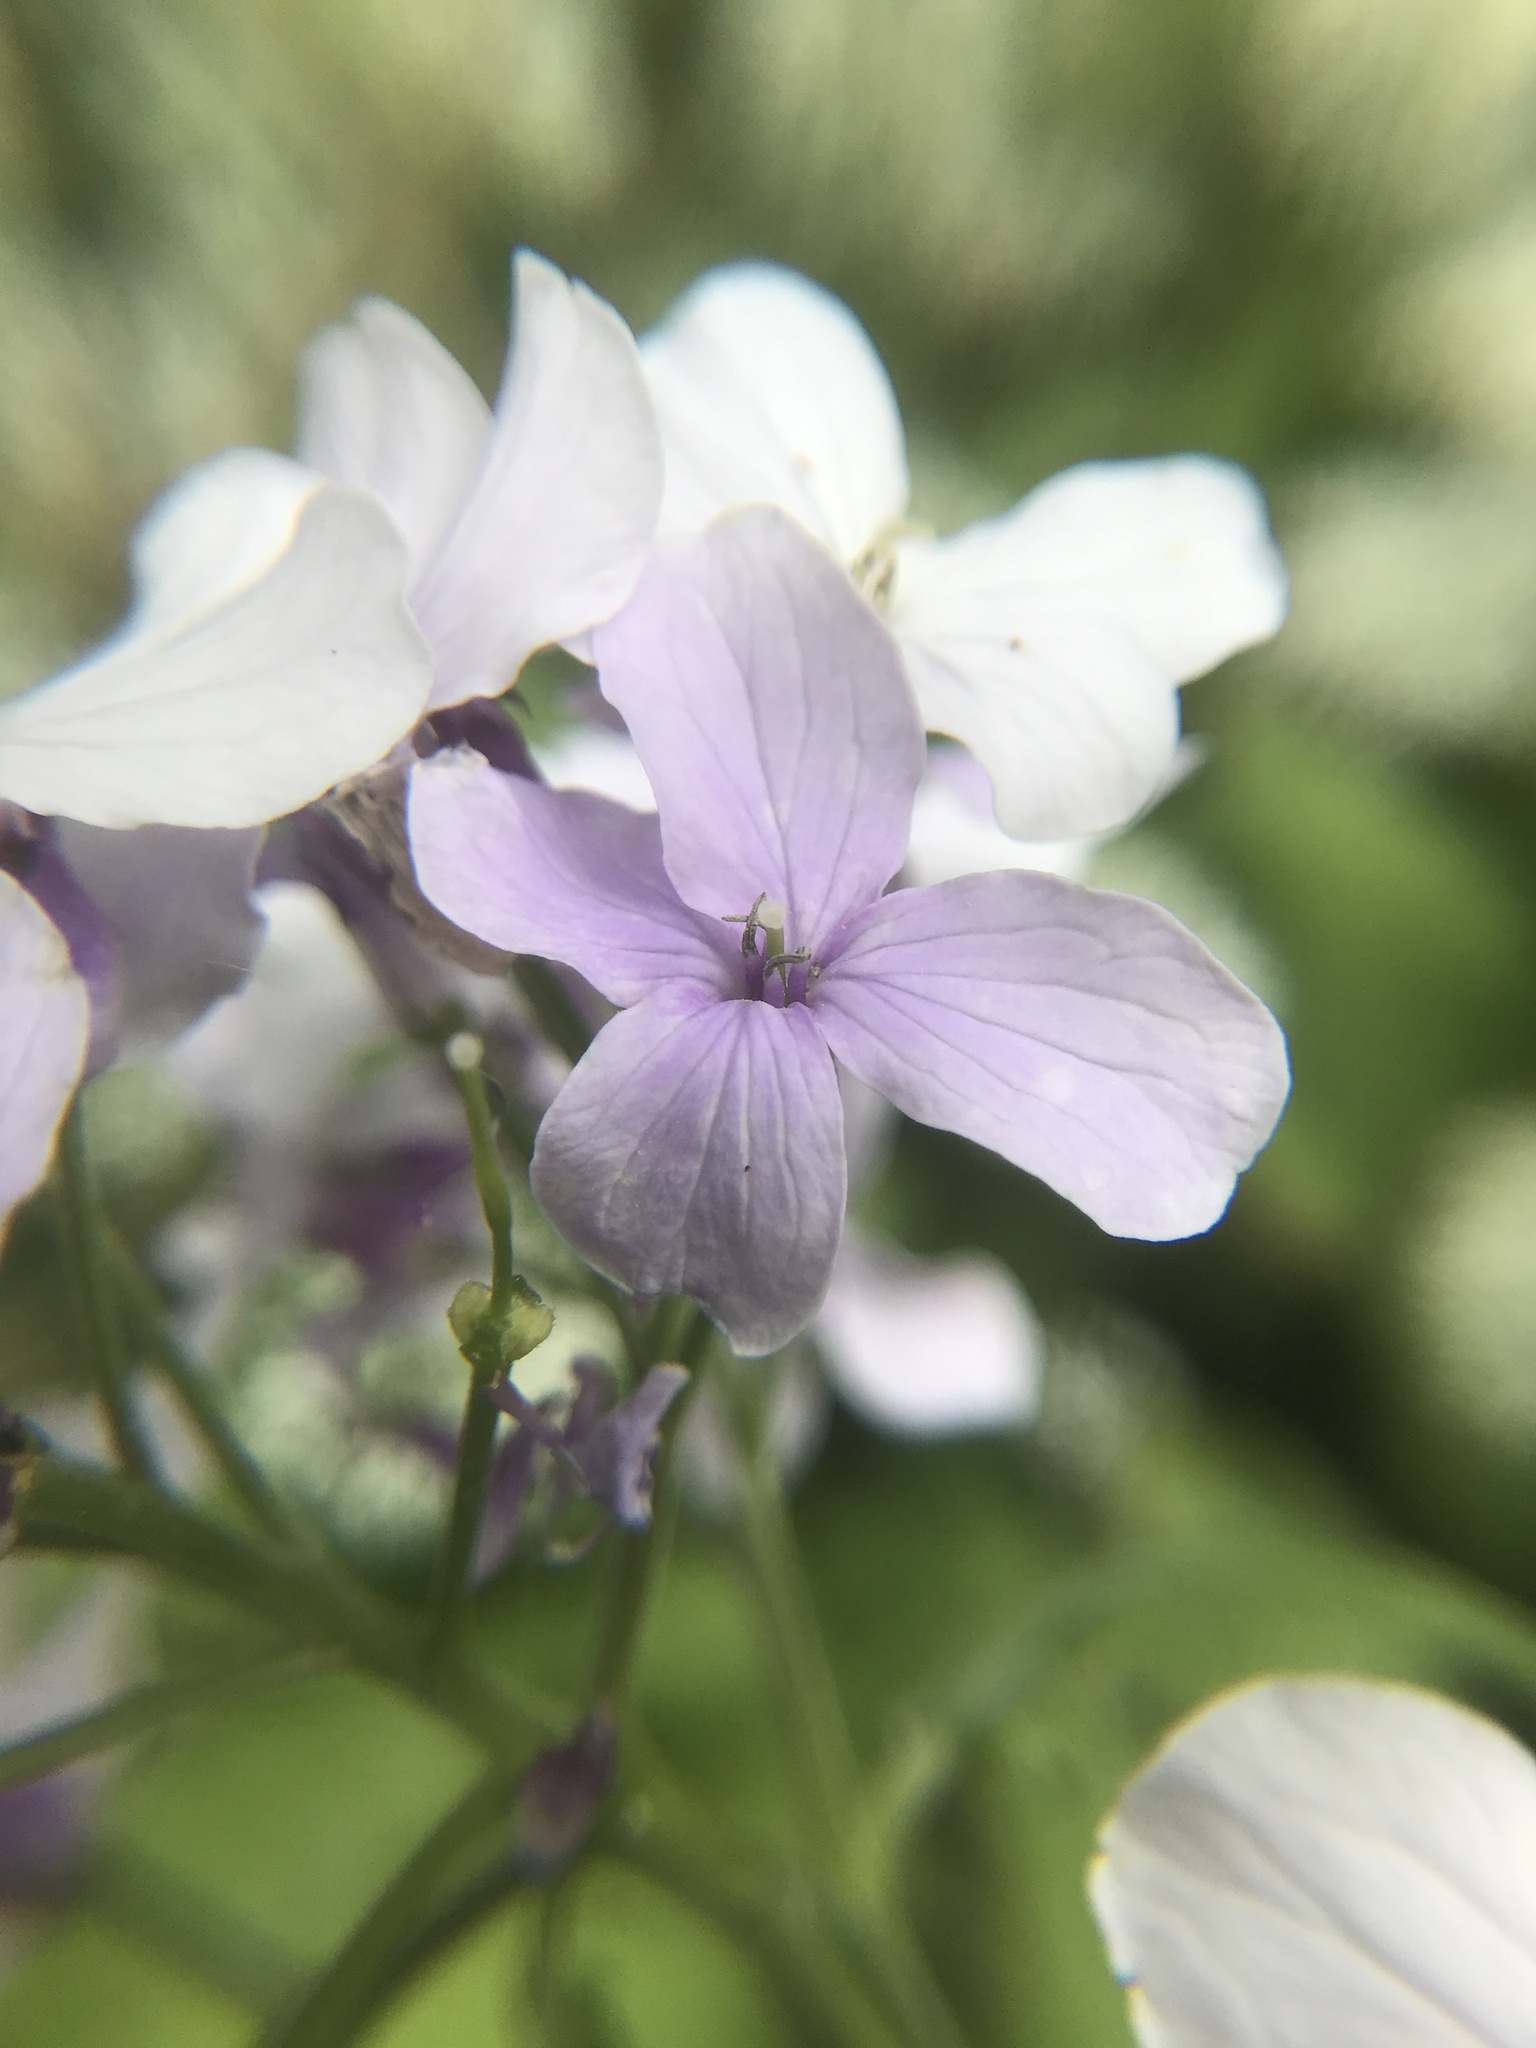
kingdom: Plantae
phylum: Tracheophyta
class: Magnoliopsida
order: Brassicales
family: Brassicaceae
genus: Lunaria
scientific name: Lunaria rediviva
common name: Perennial honesty
